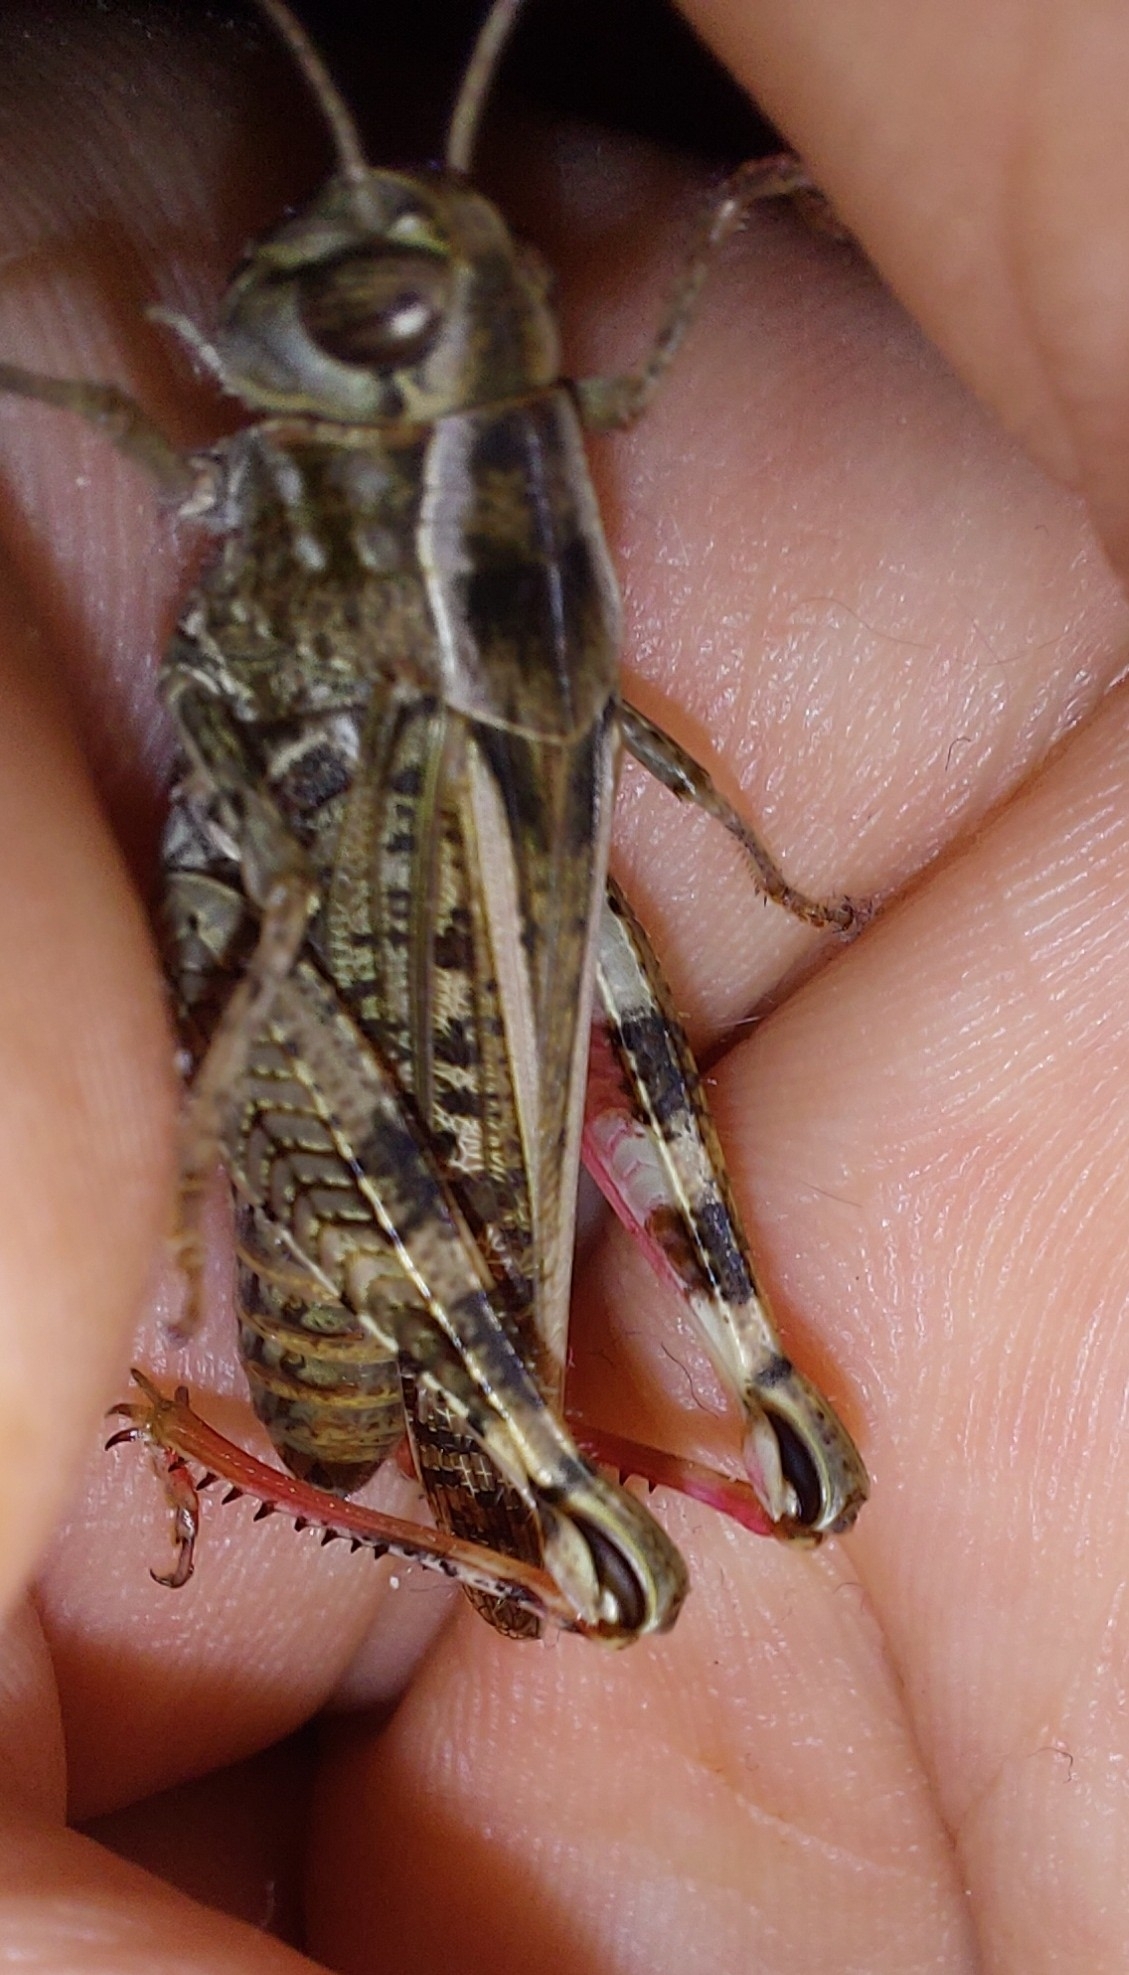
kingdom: Animalia
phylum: Arthropoda
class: Insecta
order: Orthoptera
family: Acrididae
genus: Calliptamus
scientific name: Calliptamus italicus
